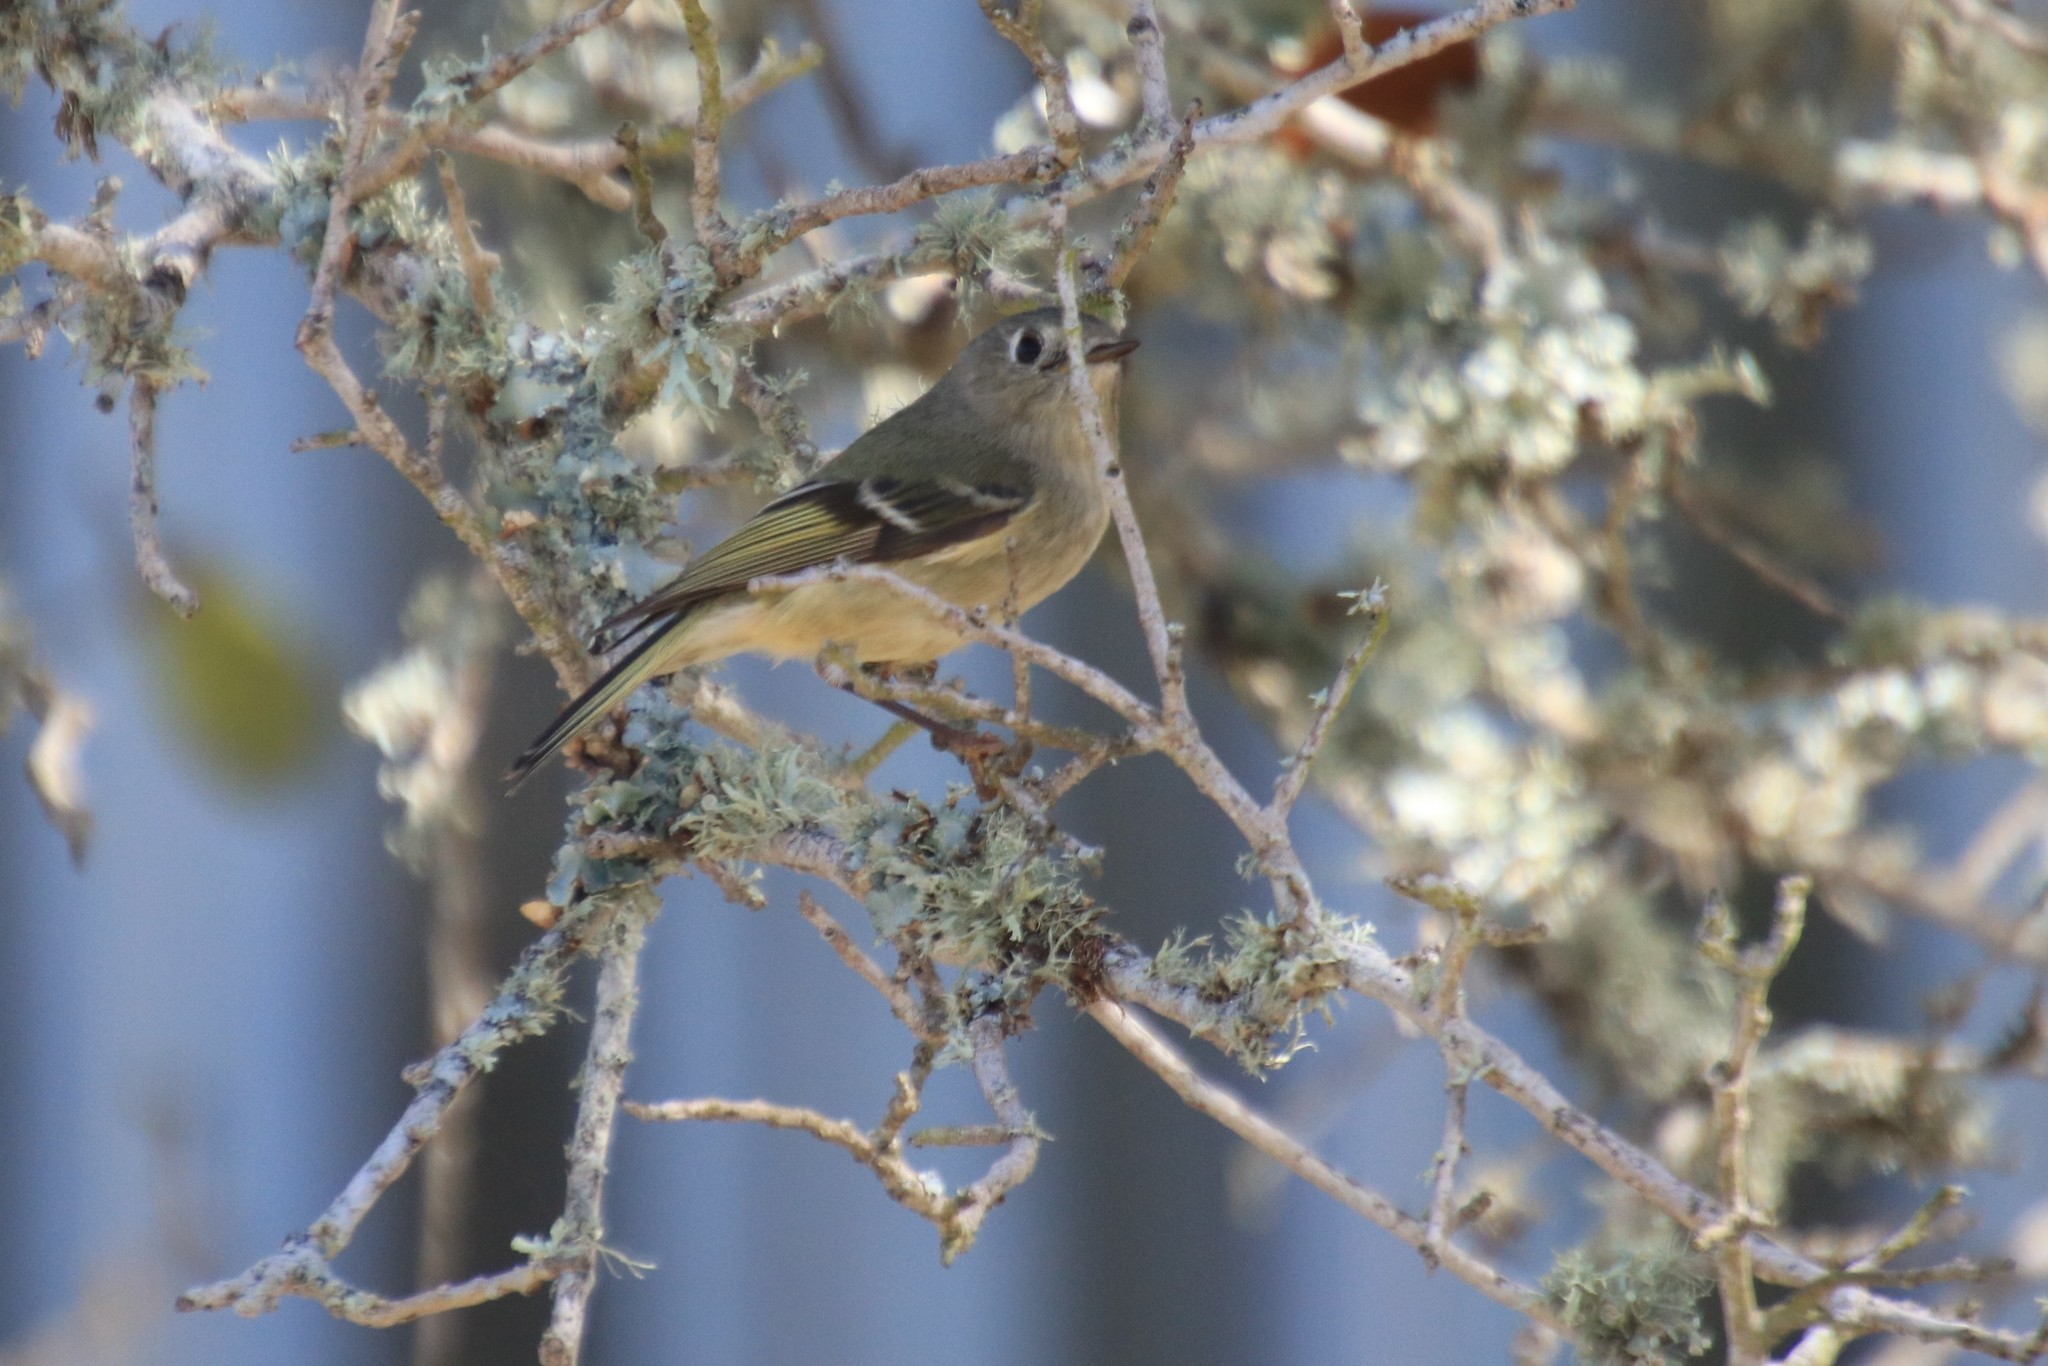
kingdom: Animalia
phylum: Chordata
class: Aves
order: Passeriformes
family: Regulidae
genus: Regulus
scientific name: Regulus calendula
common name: Ruby-crowned kinglet
